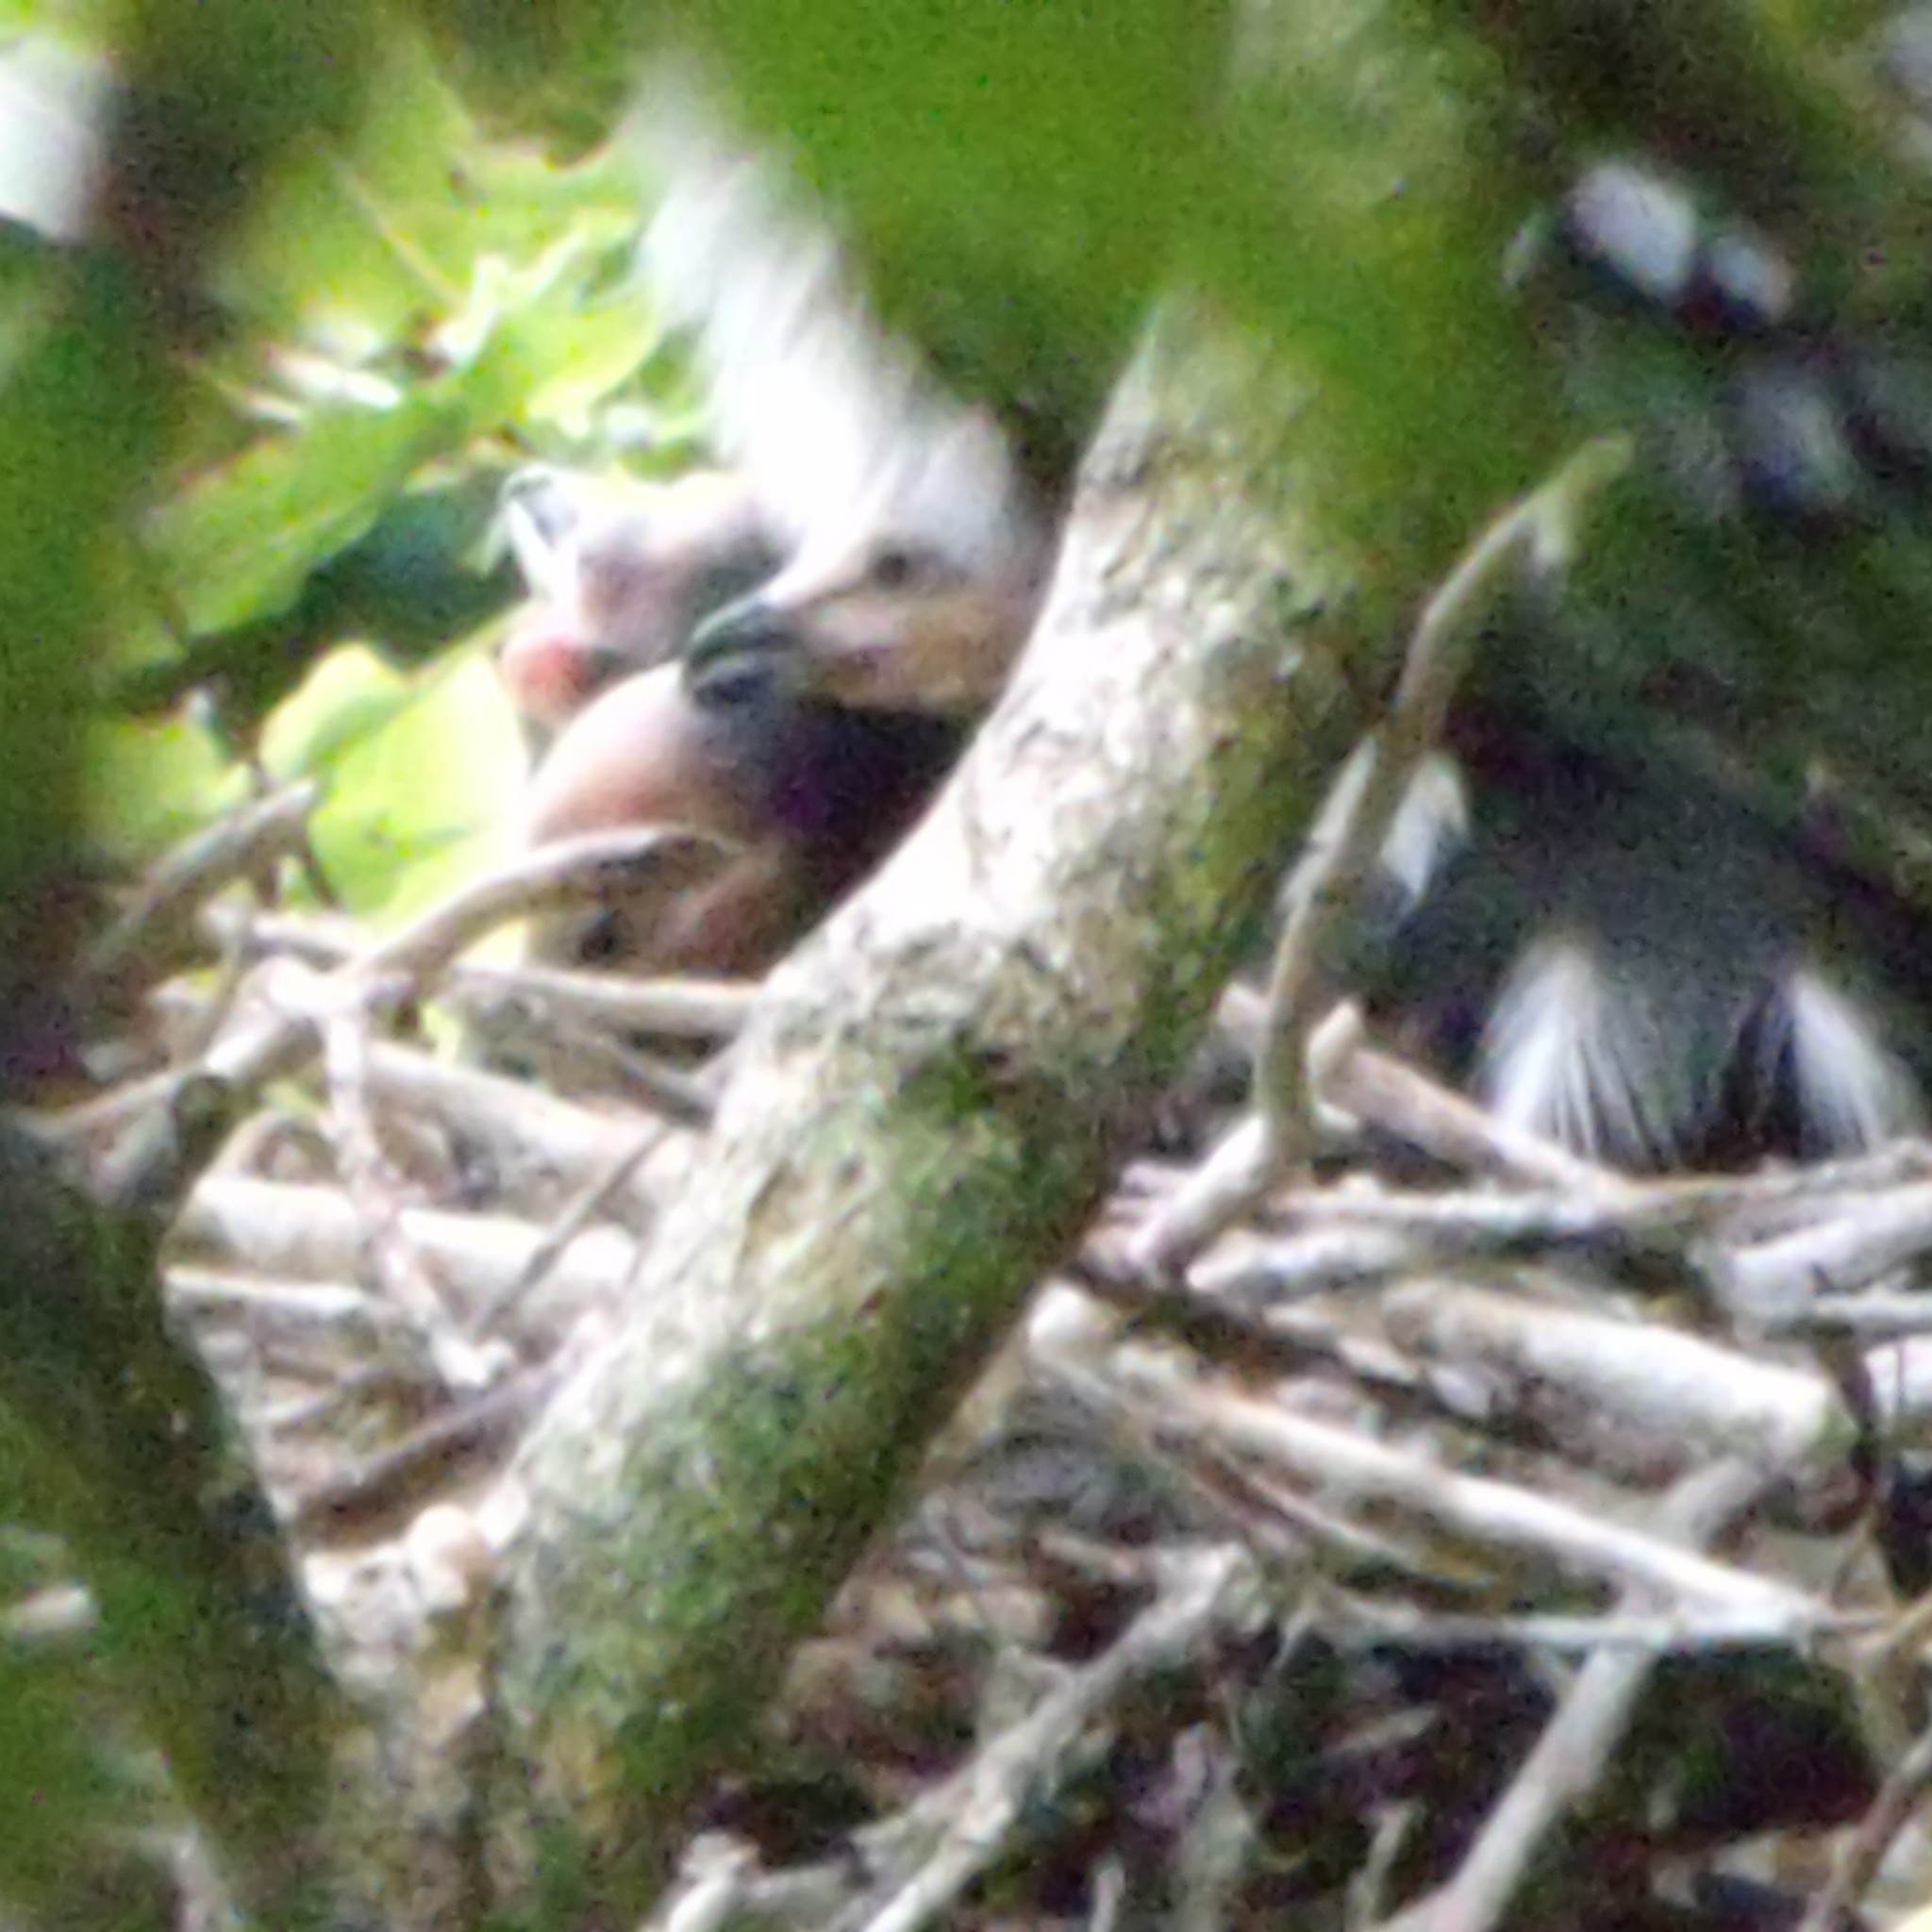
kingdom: Animalia
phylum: Chordata
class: Aves
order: Suliformes
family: Phalacrocoracidae
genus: Microcarbo
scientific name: Microcarbo melanoleucos
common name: Little pied cormorant
